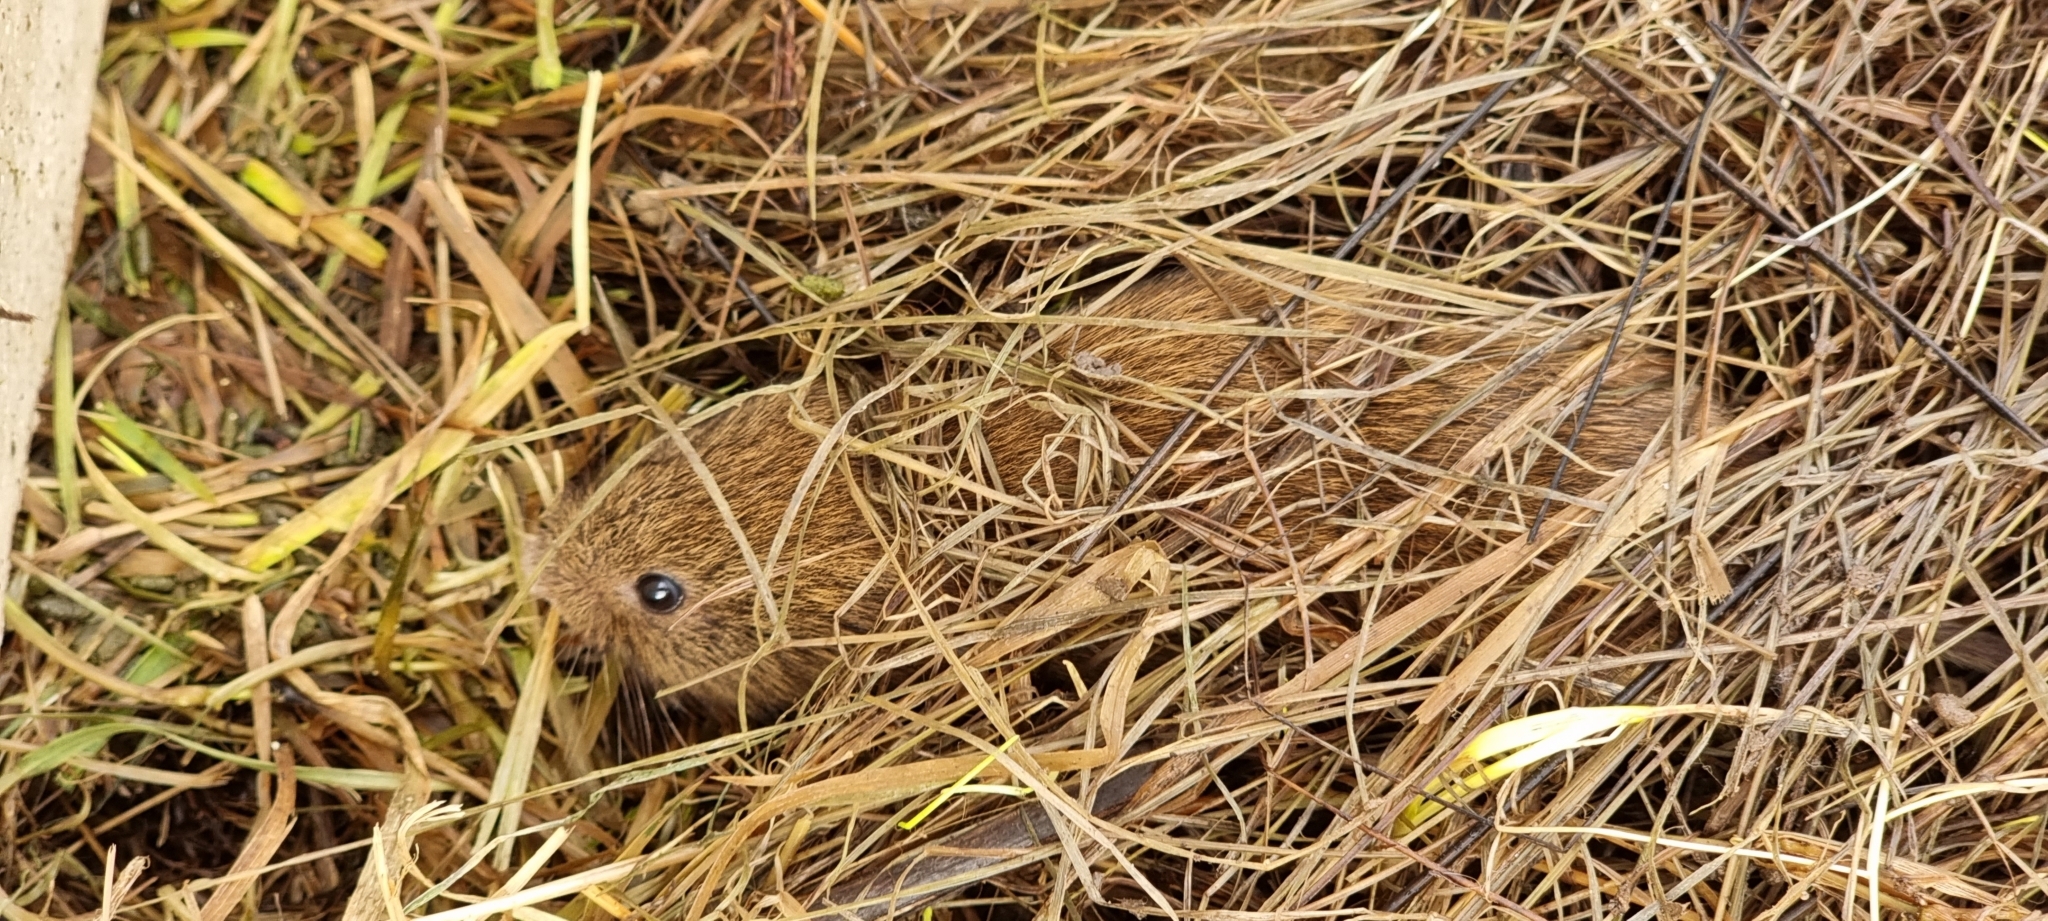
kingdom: Animalia
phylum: Chordata
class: Mammalia
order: Rodentia
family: Cricetidae
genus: Microtus
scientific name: Microtus agrestis
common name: Field vole
